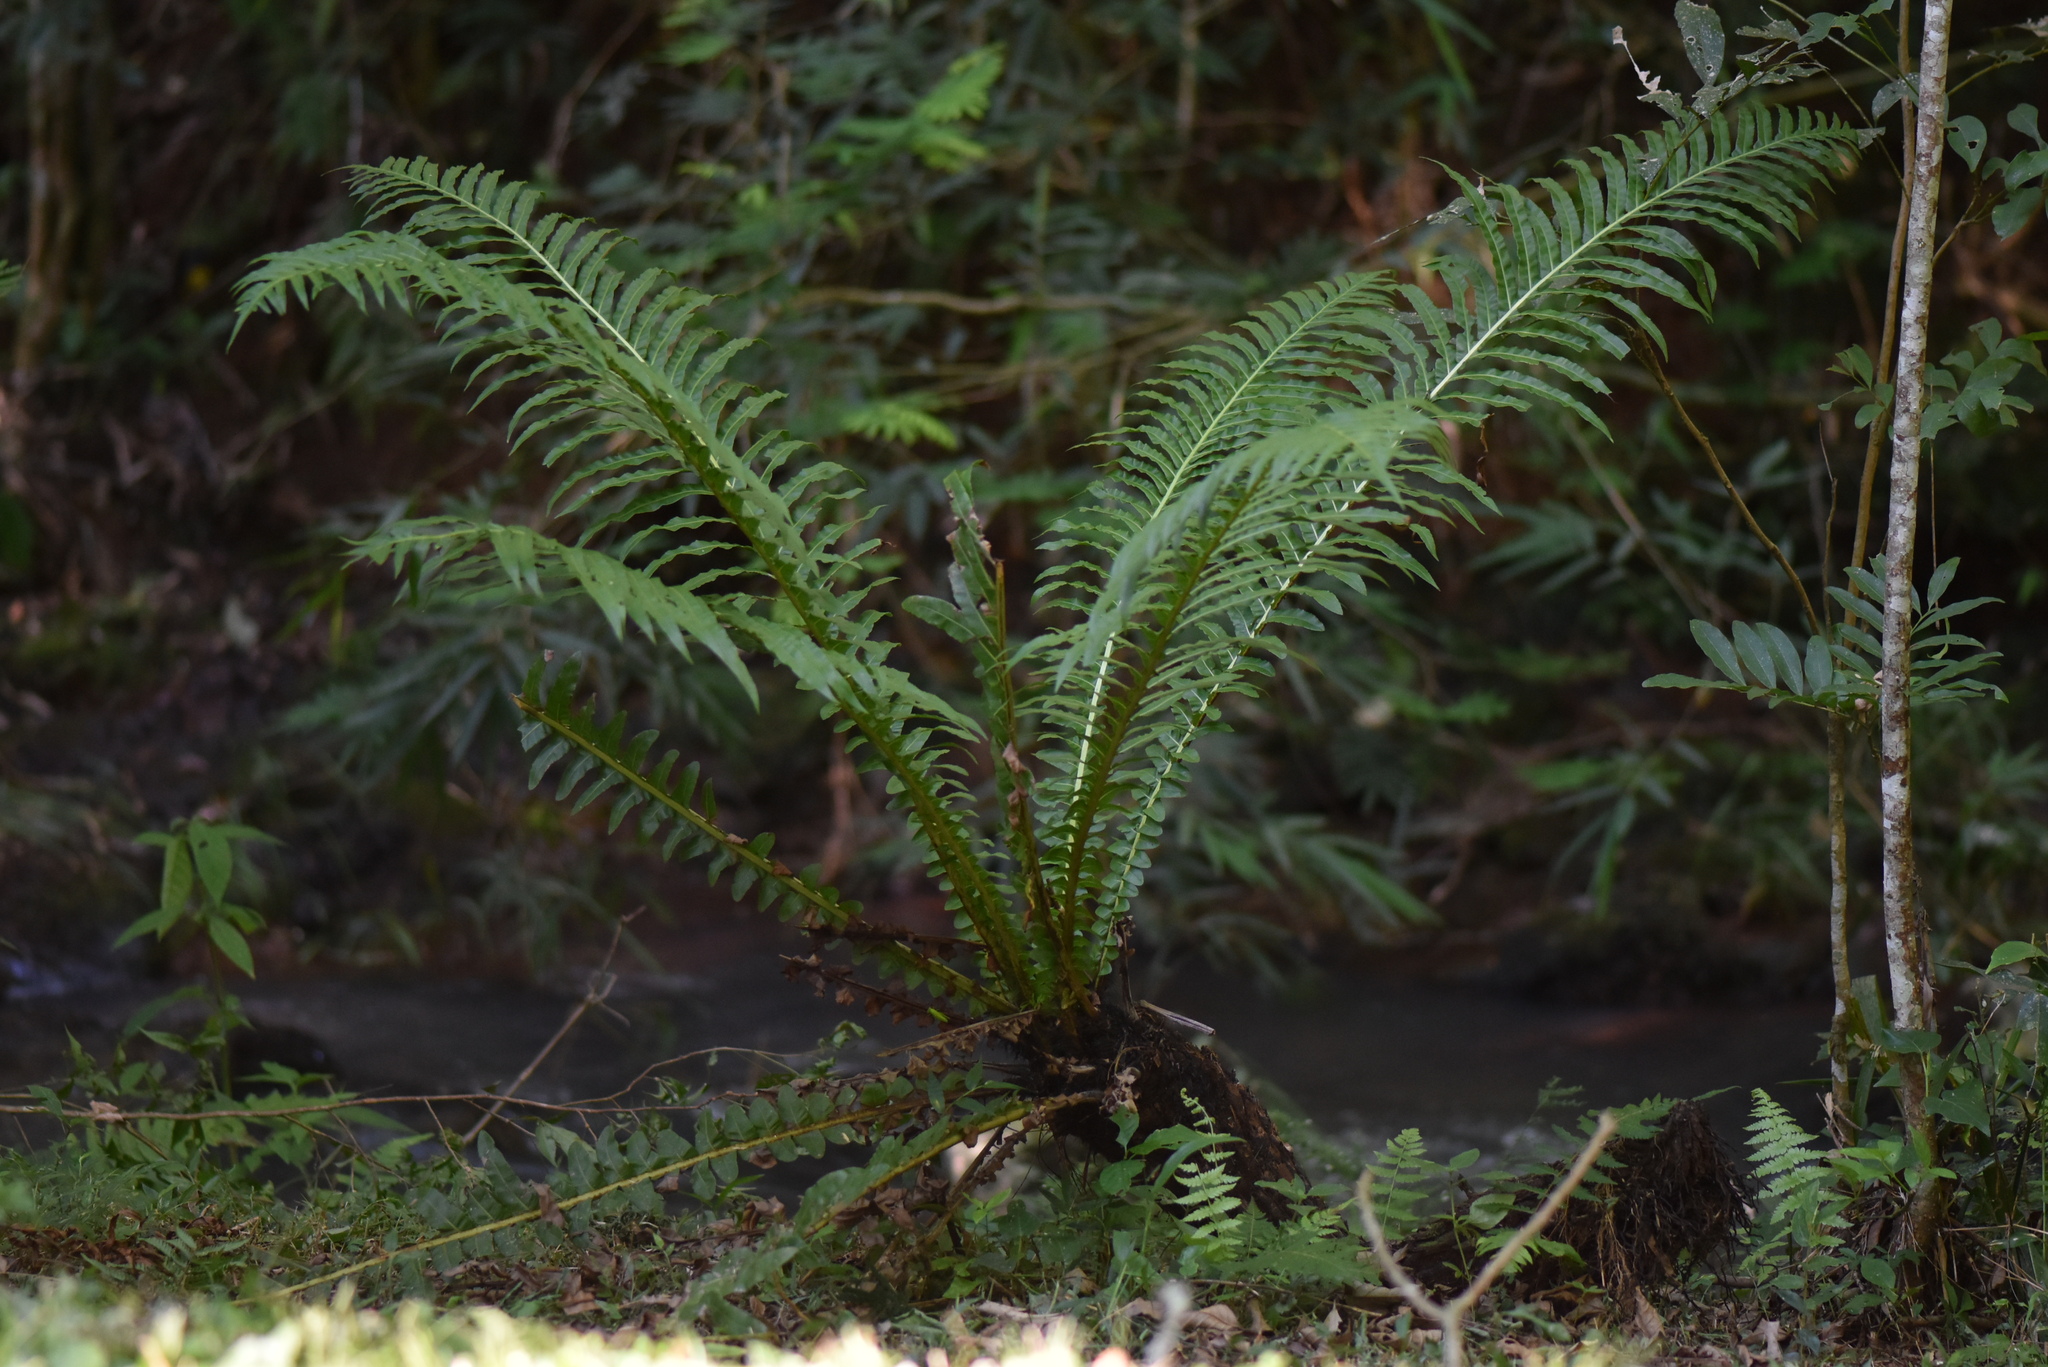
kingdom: Plantae
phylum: Tracheophyta
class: Polypodiopsida
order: Polypodiales
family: Blechnaceae
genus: Neoblechnum
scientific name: Neoblechnum brasiliense
